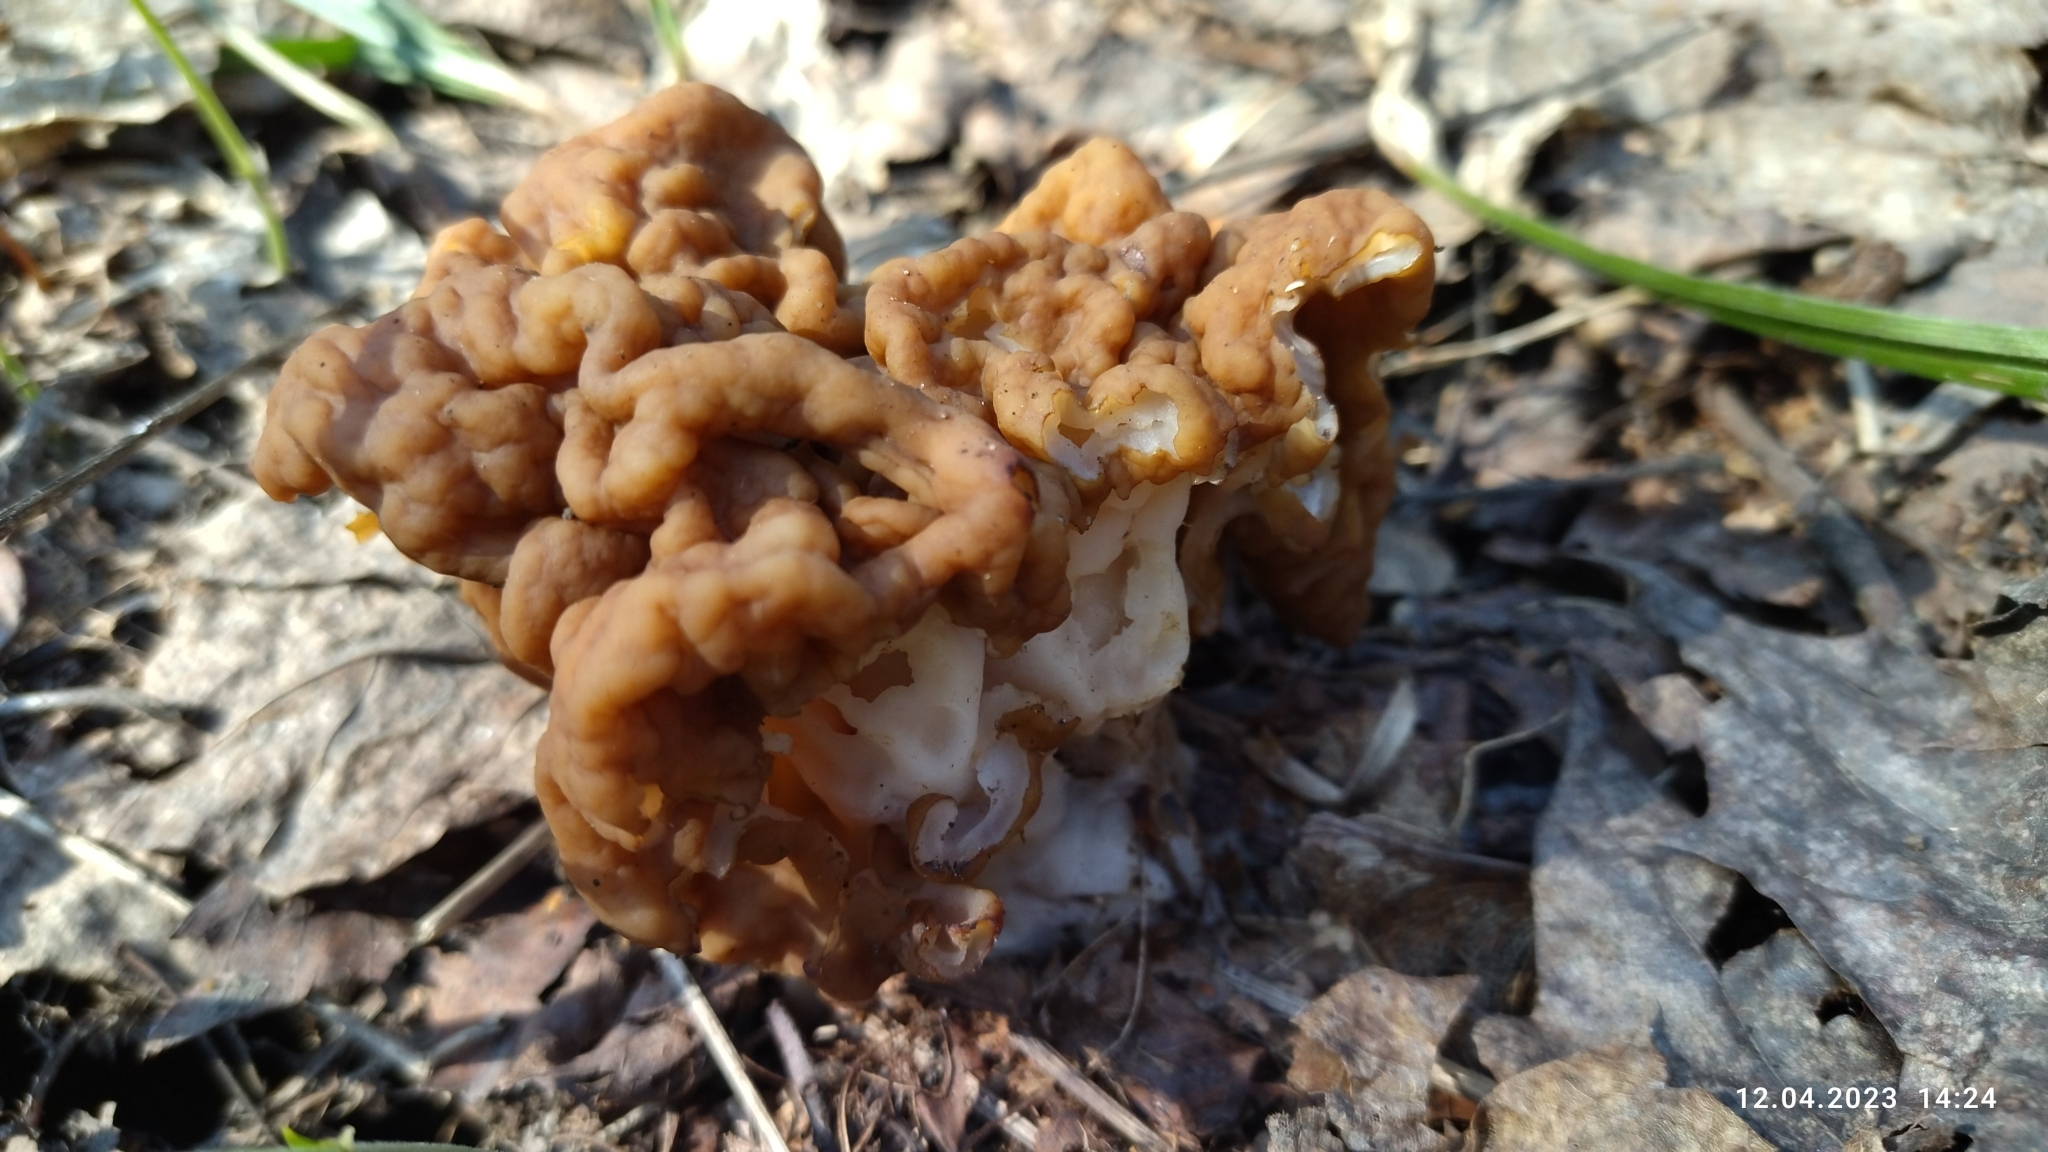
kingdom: Fungi
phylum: Ascomycota
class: Pezizomycetes
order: Pezizales
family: Discinaceae
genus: Gyromitra
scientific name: Gyromitra gigas
